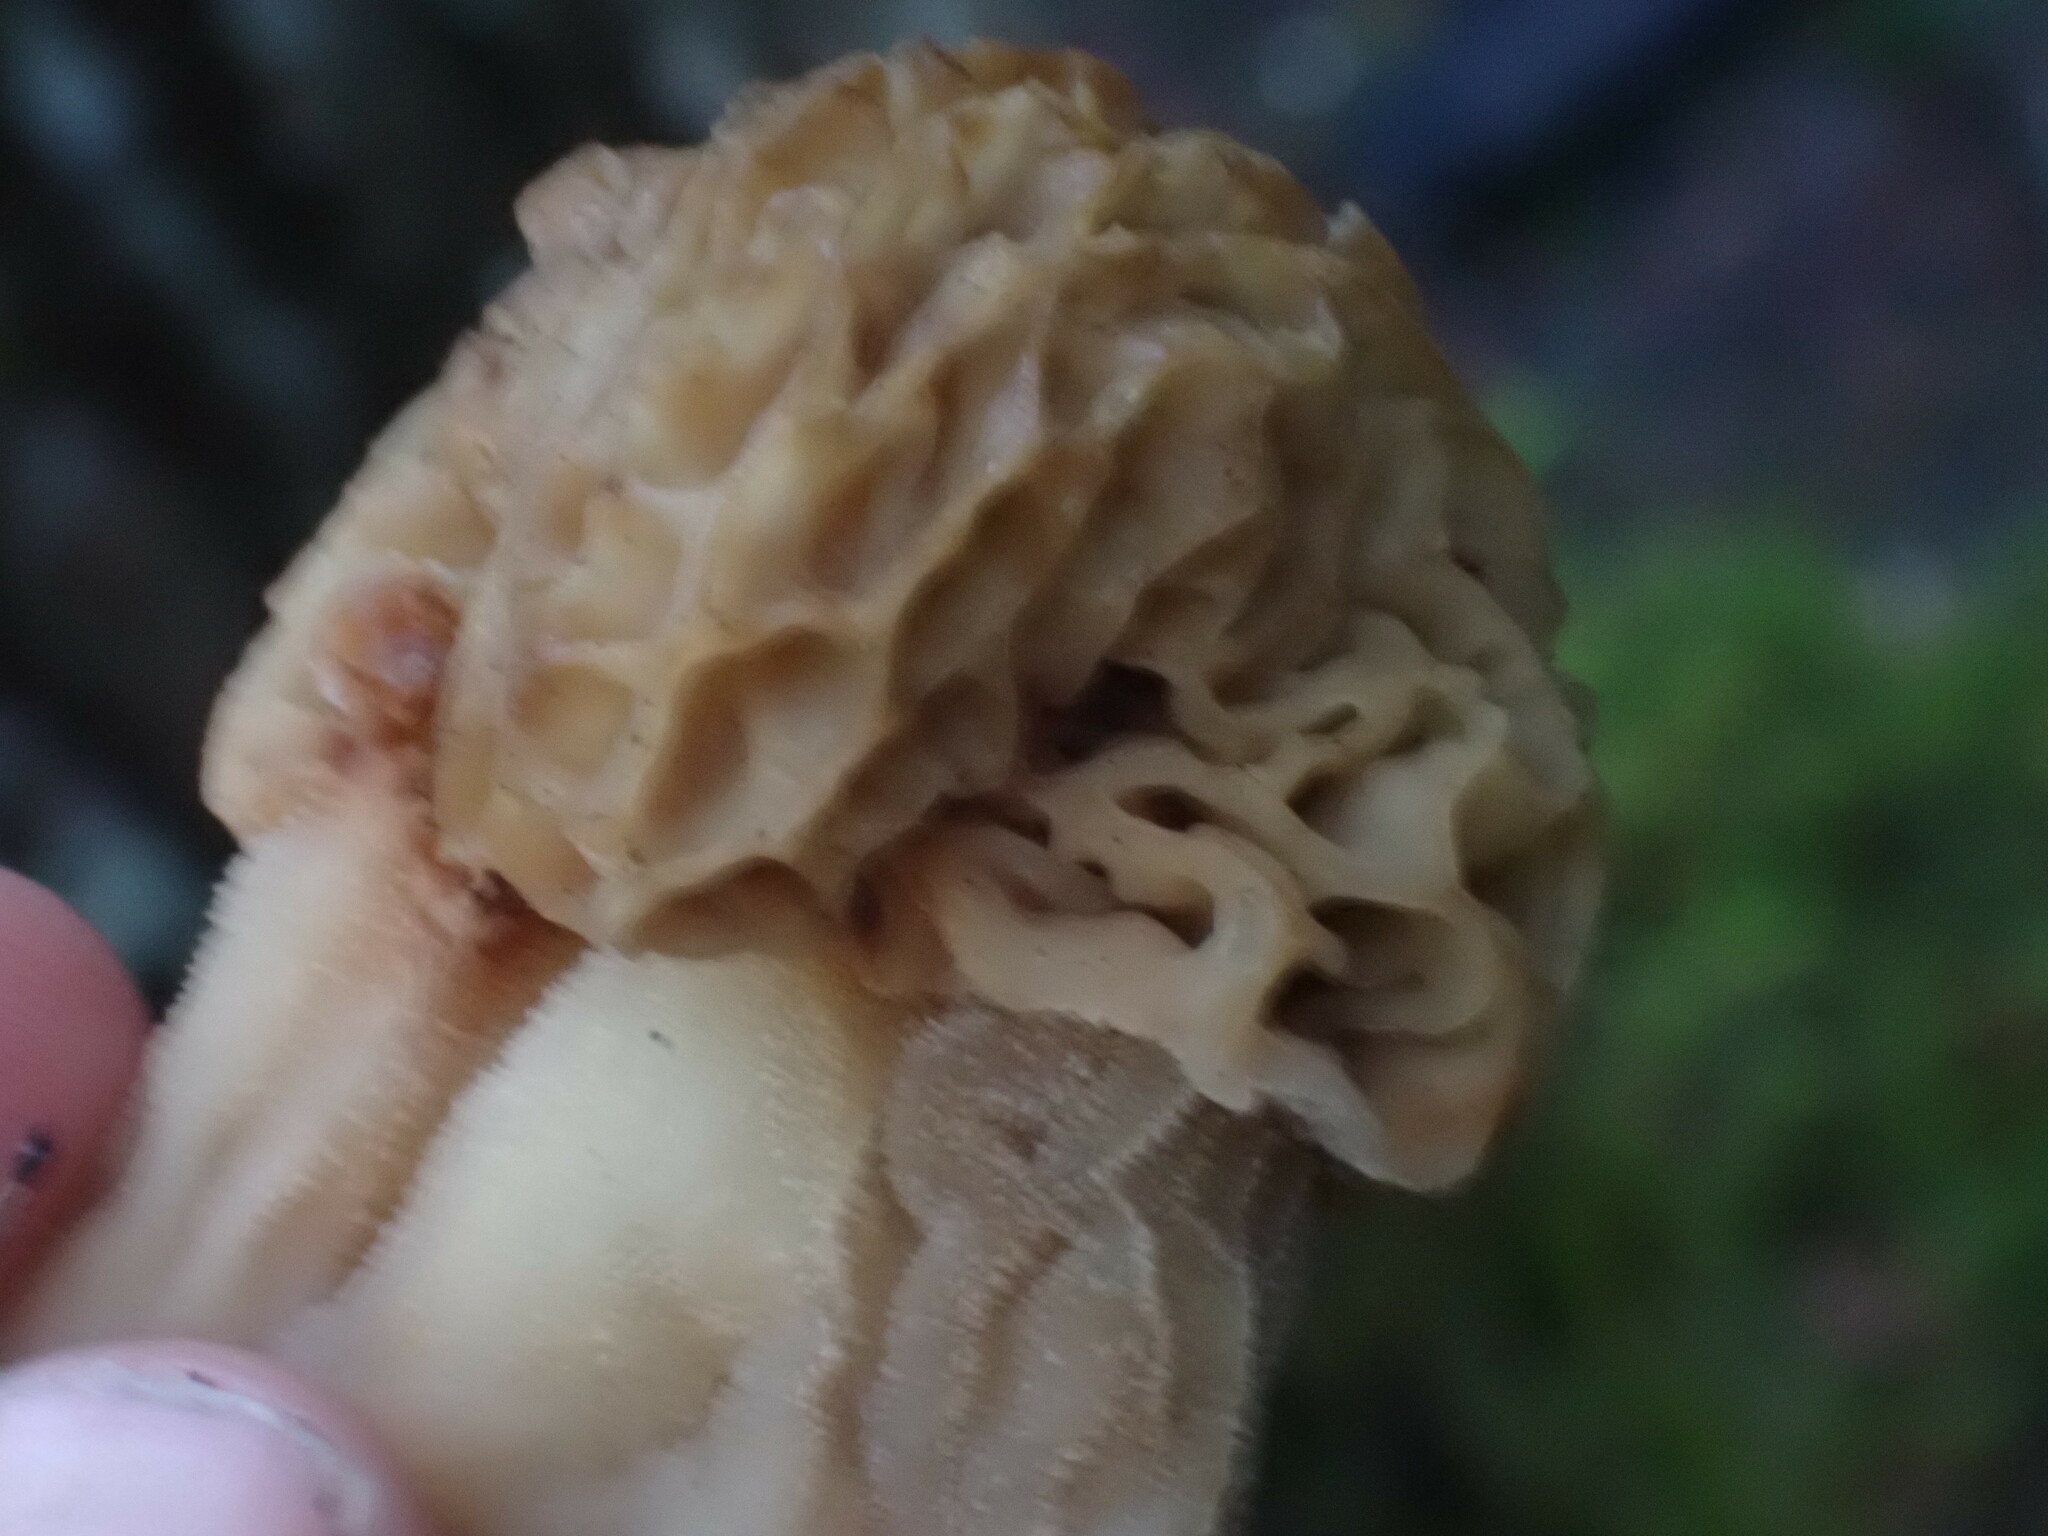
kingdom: Fungi
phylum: Ascomycota
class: Pezizomycetes
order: Pezizales
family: Morchellaceae
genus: Morchella
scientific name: Morchella tridentina
